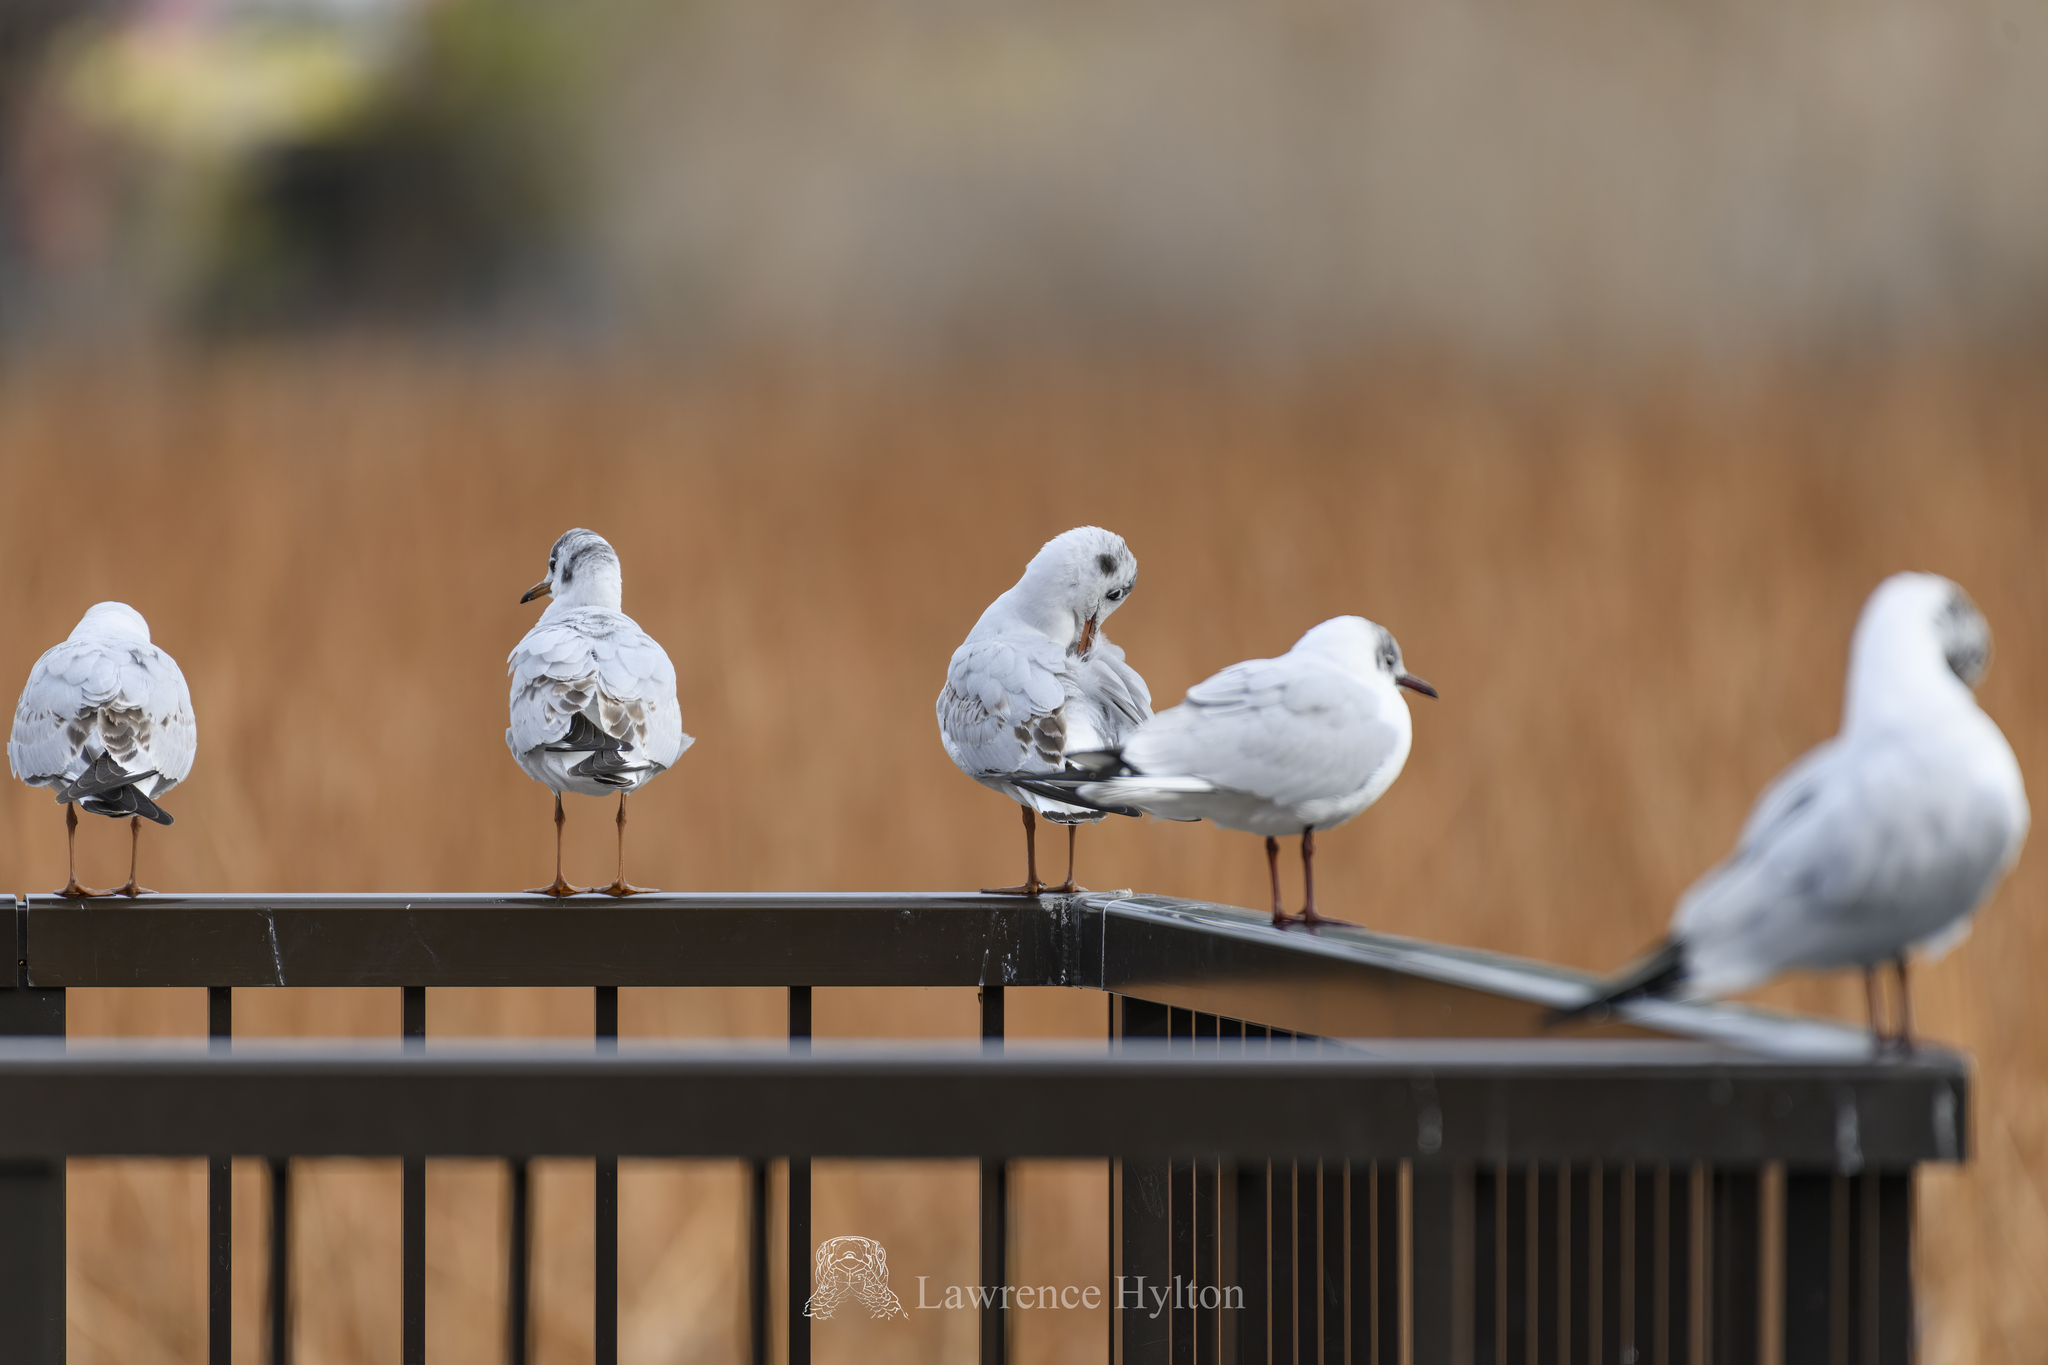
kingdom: Animalia
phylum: Chordata
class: Aves
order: Charadriiformes
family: Laridae
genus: Chroicocephalus
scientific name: Chroicocephalus ridibundus
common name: Black-headed gull
